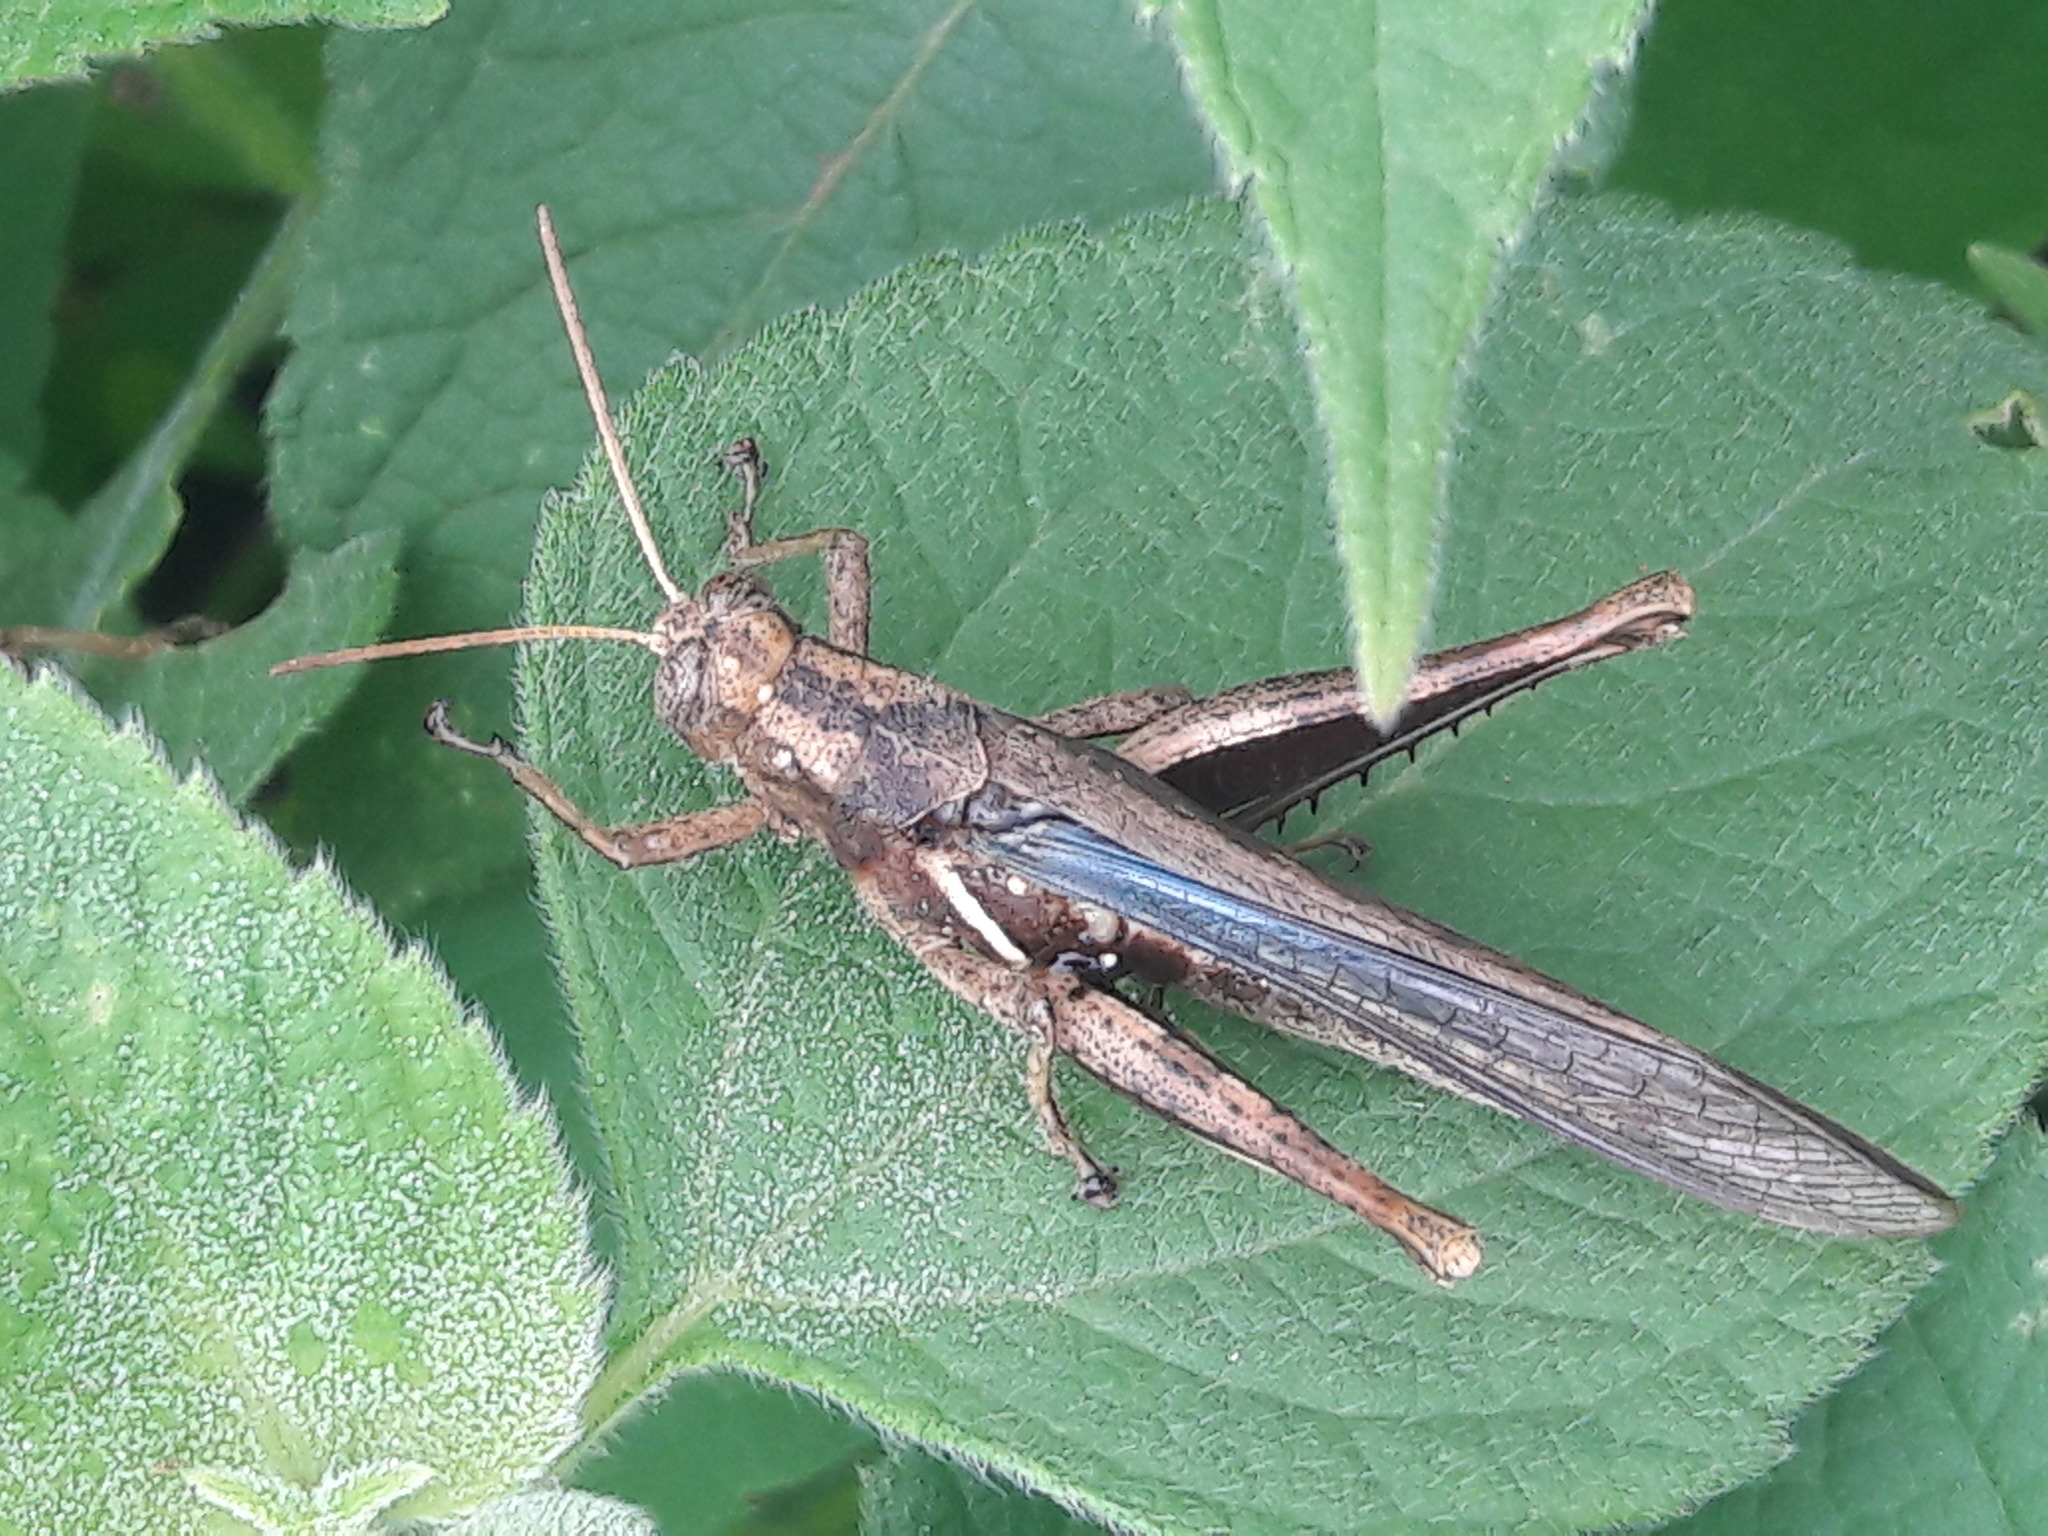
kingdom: Animalia
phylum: Arthropoda
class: Insecta
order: Orthoptera
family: Acrididae
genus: Abracris
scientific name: Abracris flavolineata
